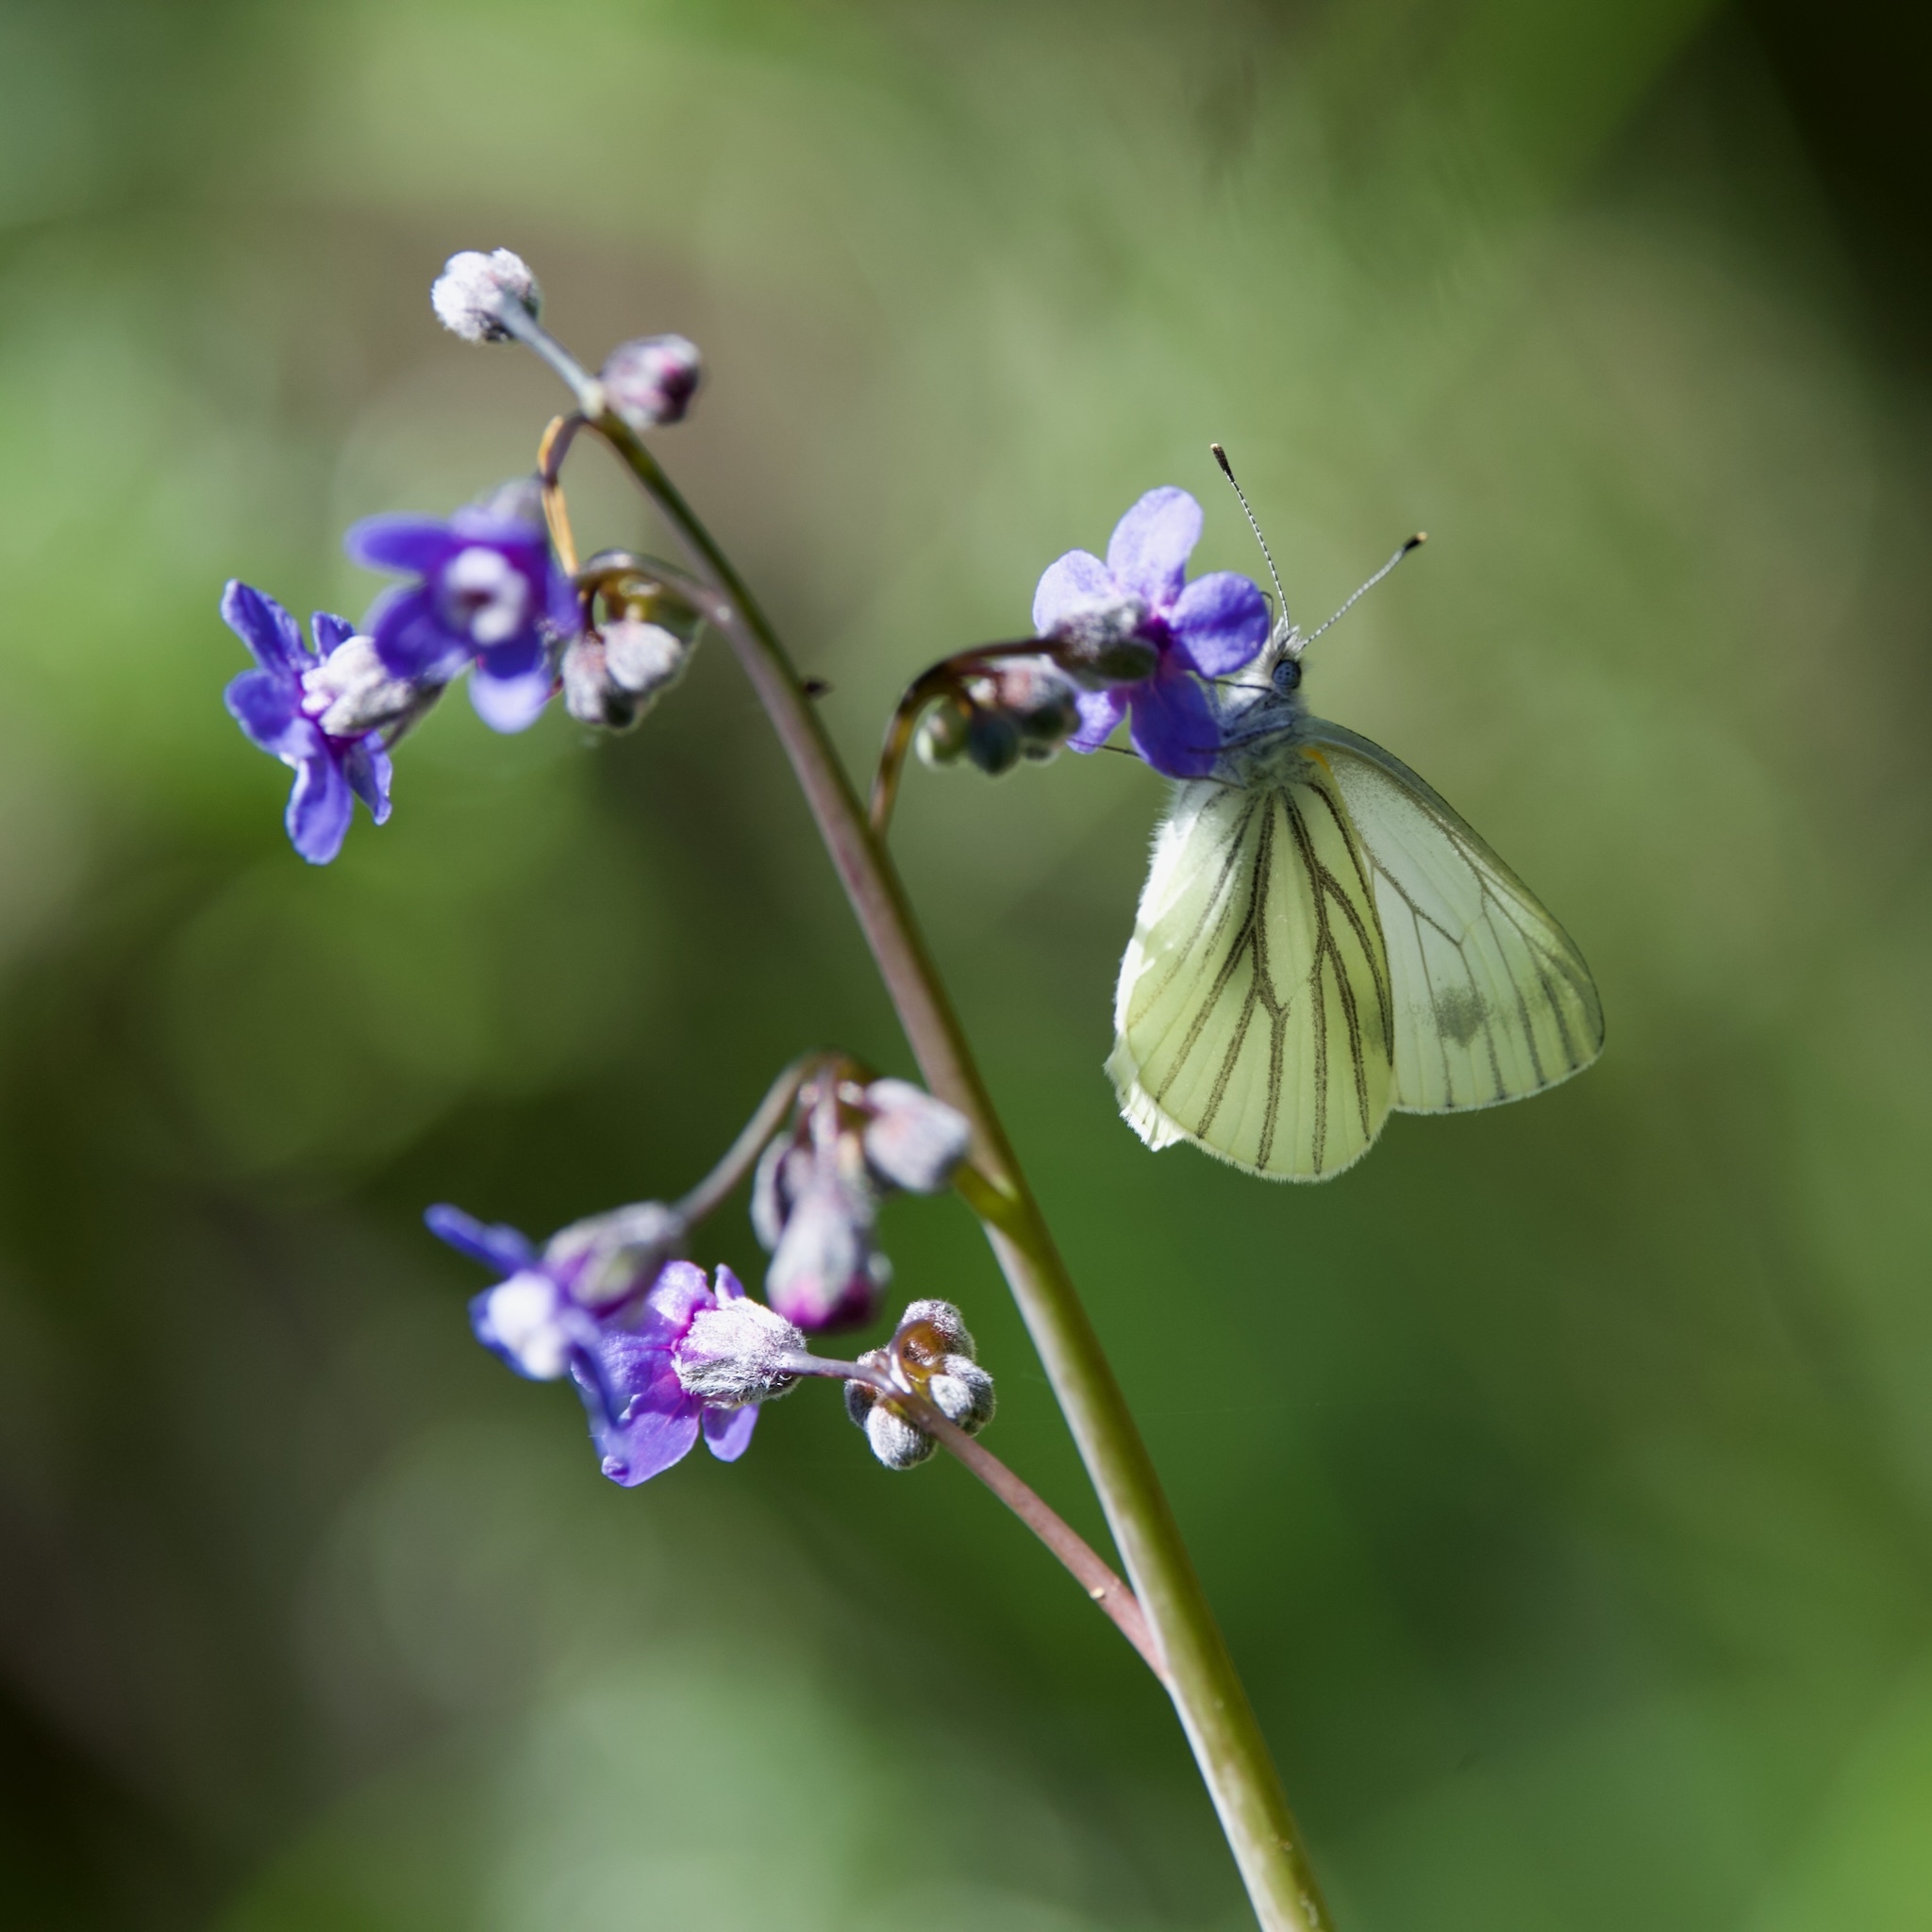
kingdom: Animalia
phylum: Arthropoda
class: Insecta
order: Lepidoptera
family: Pieridae
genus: Pieris
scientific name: Pieris marginalis
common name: Margined white
